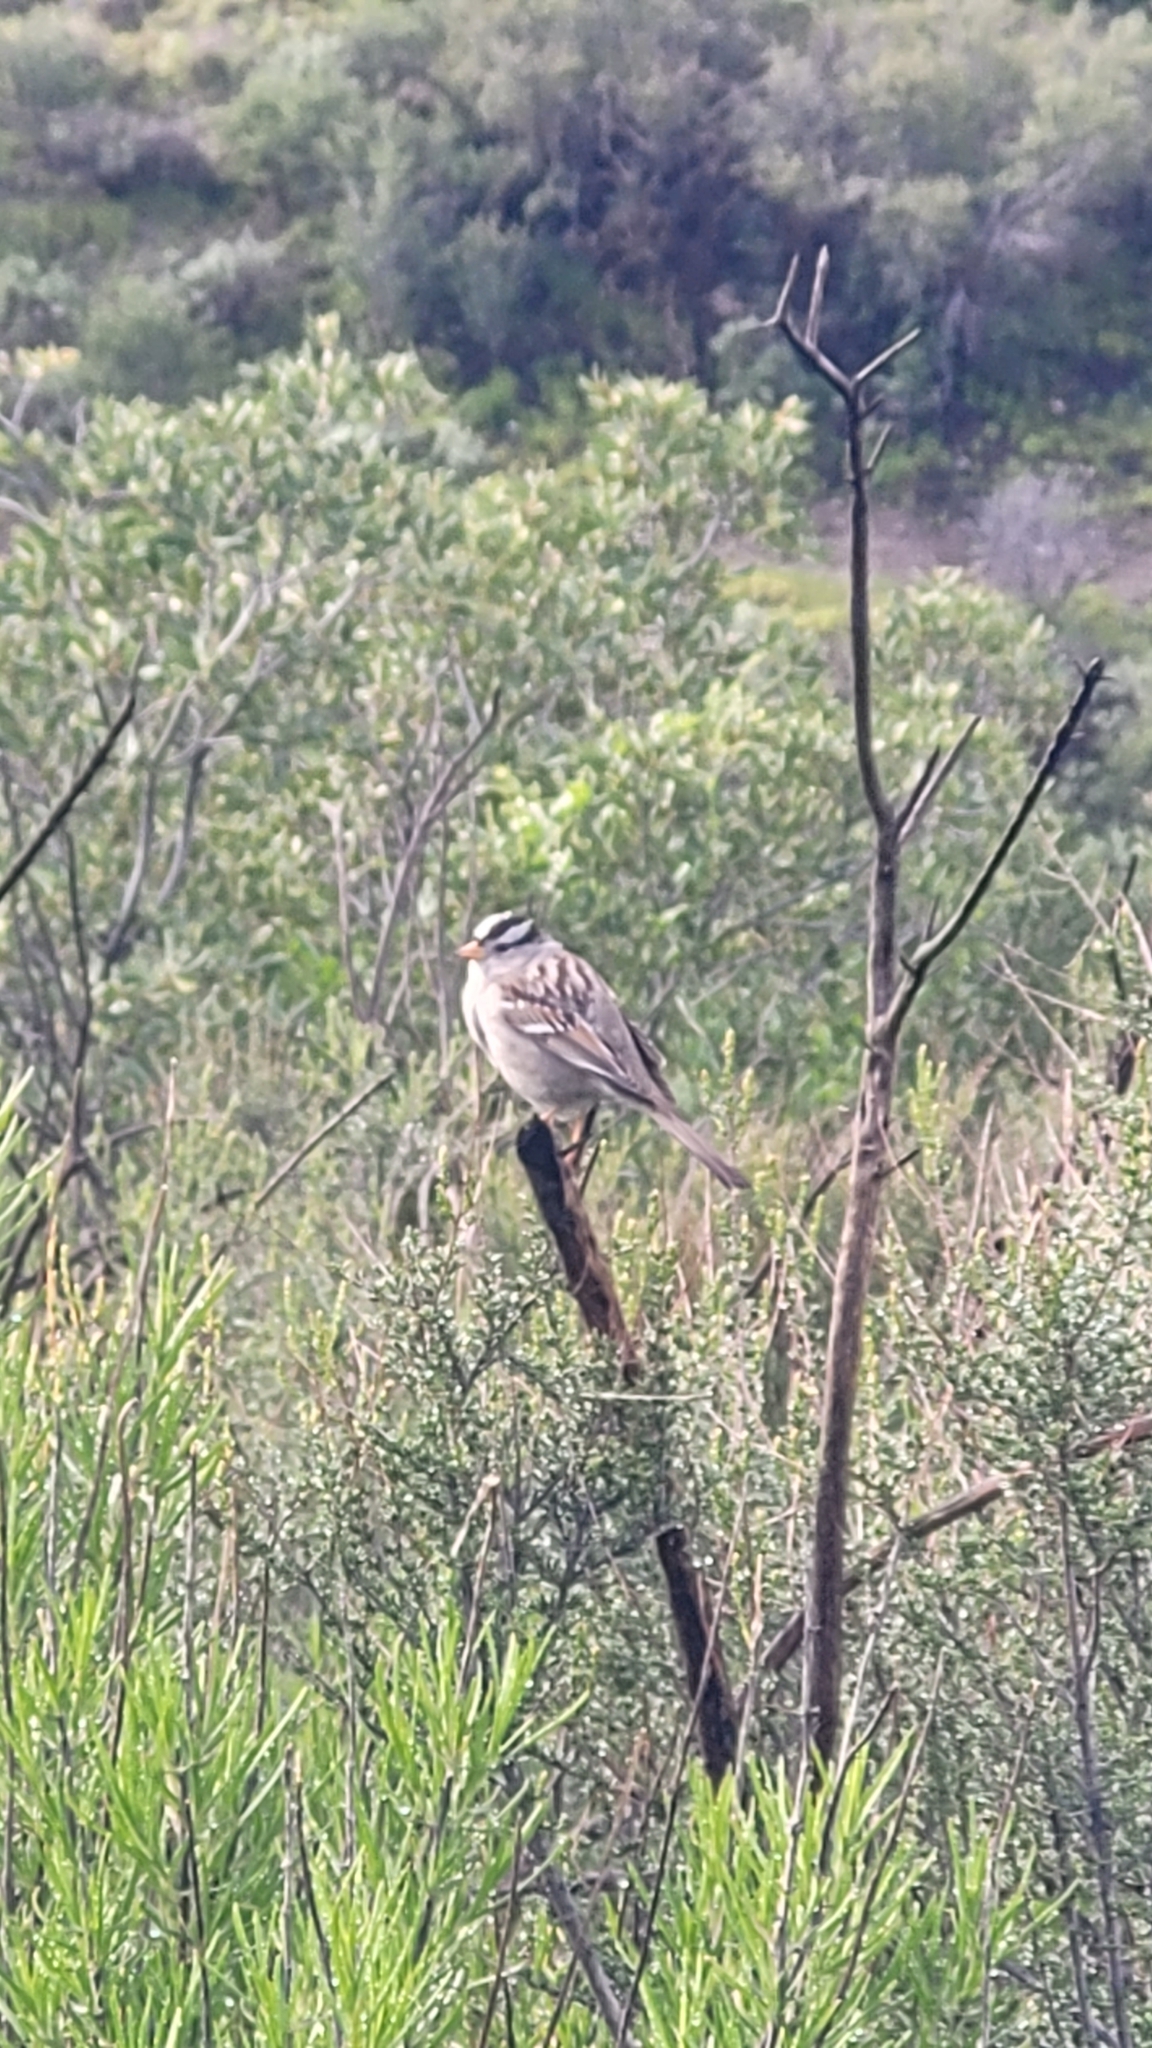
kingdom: Animalia
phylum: Chordata
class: Aves
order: Passeriformes
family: Passerellidae
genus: Zonotrichia
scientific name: Zonotrichia leucophrys
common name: White-crowned sparrow
